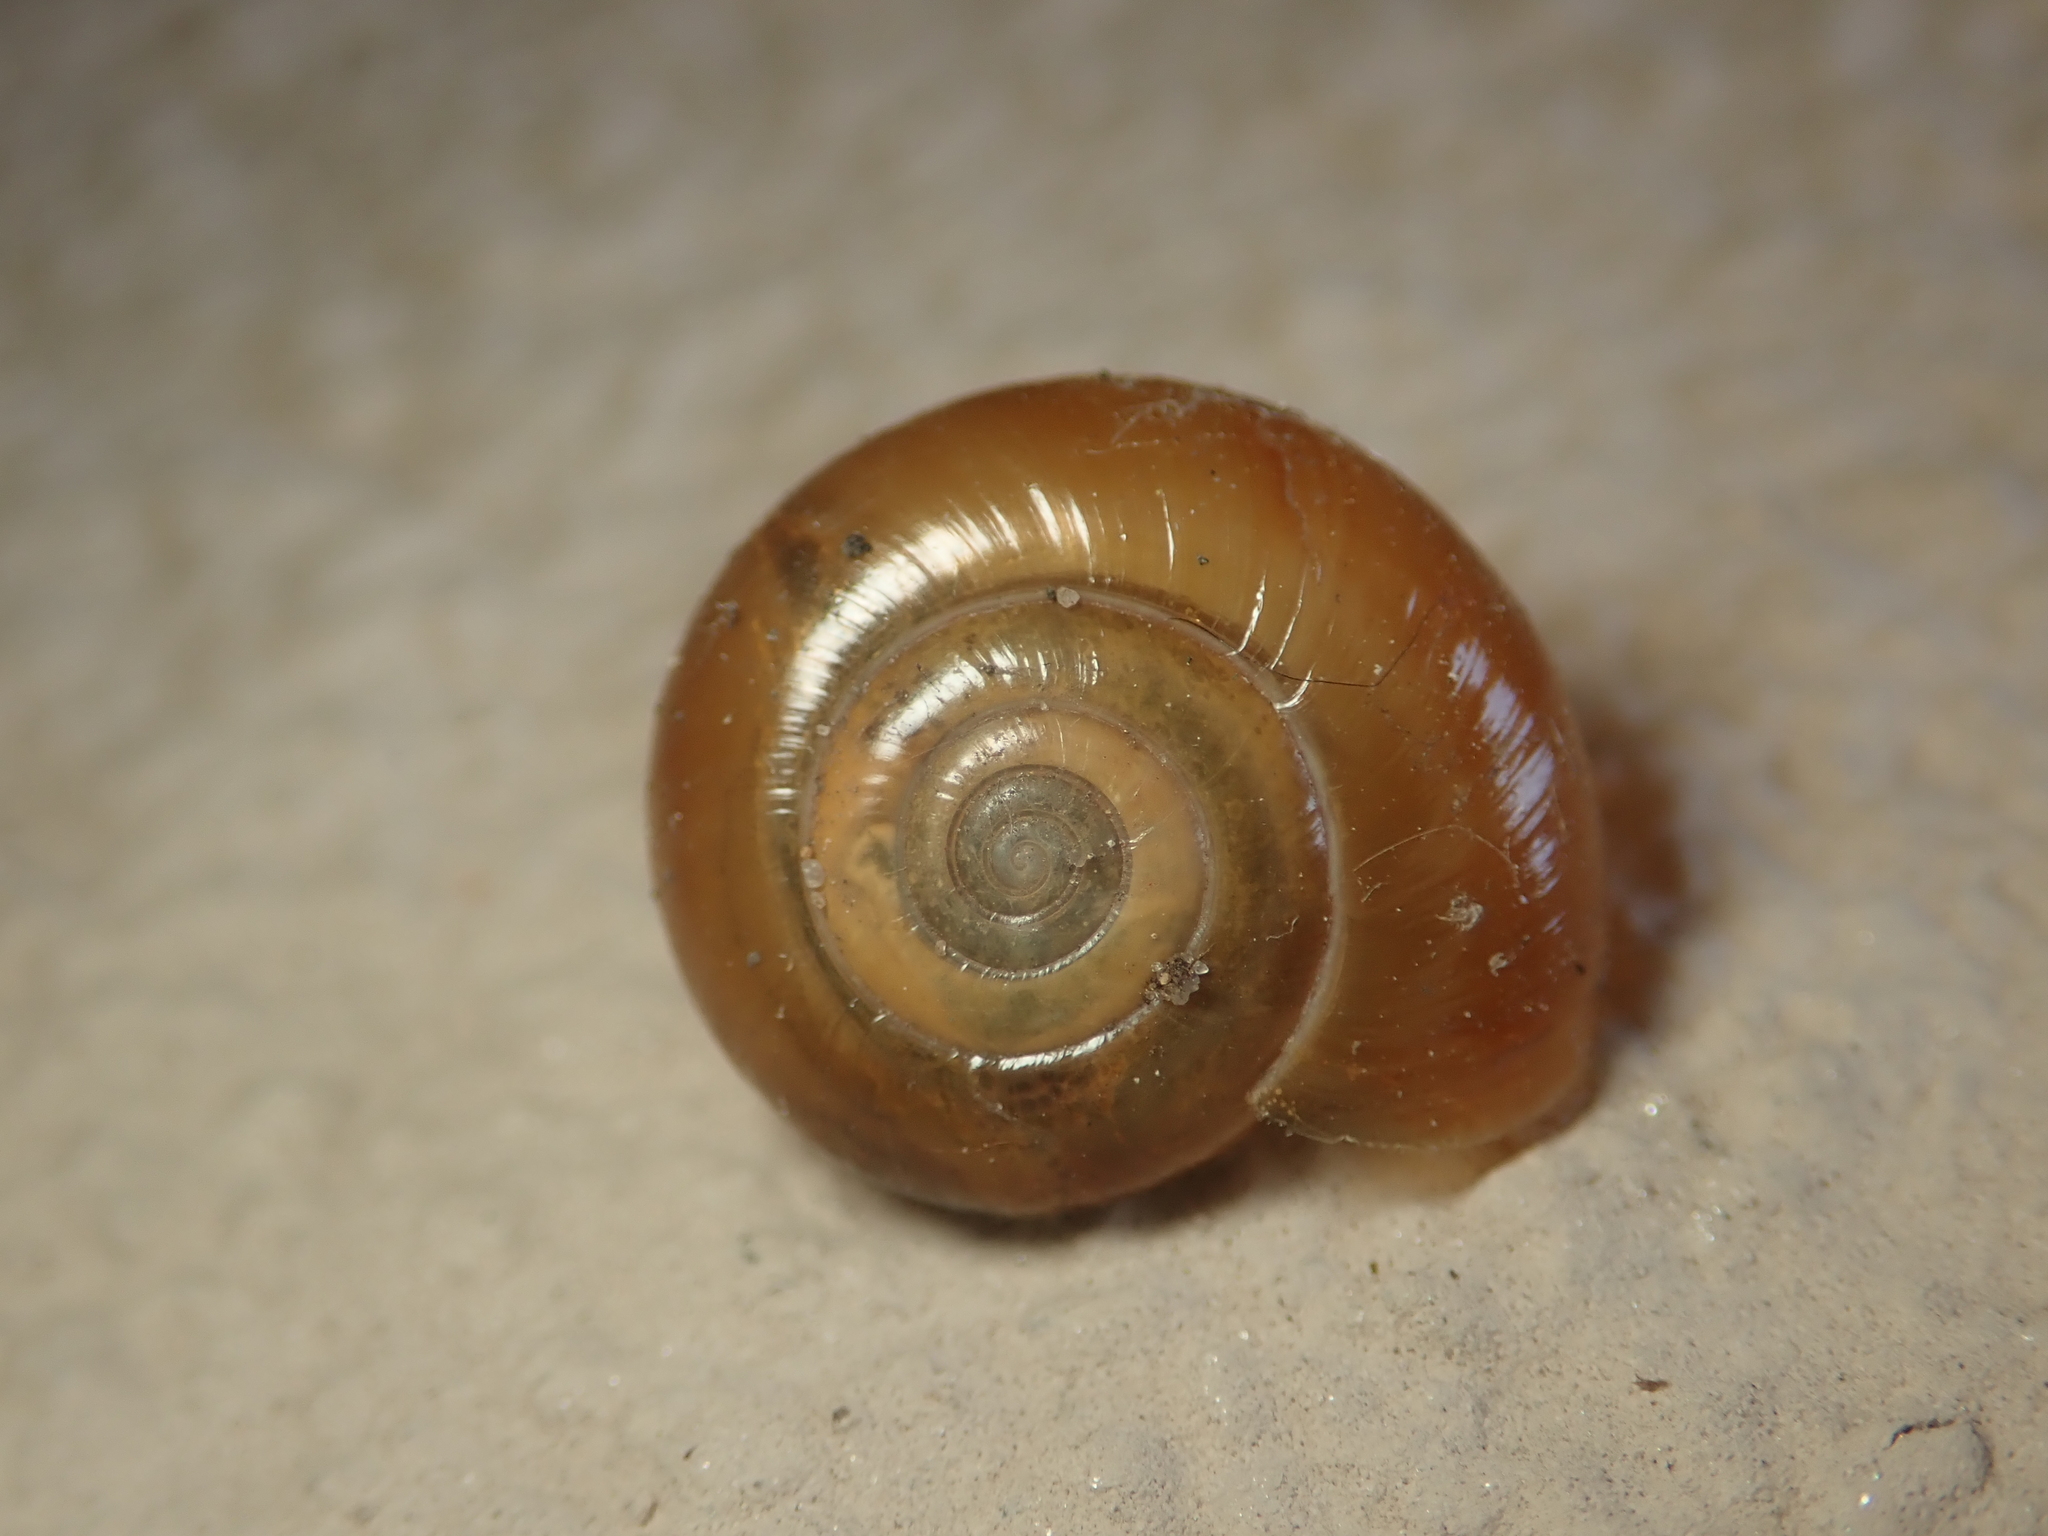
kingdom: Animalia
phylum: Mollusca
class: Gastropoda
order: Stylommatophora
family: Oxychilidae
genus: Oxychilus
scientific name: Oxychilus draparnaudi
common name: Draparnaud's glass snail
